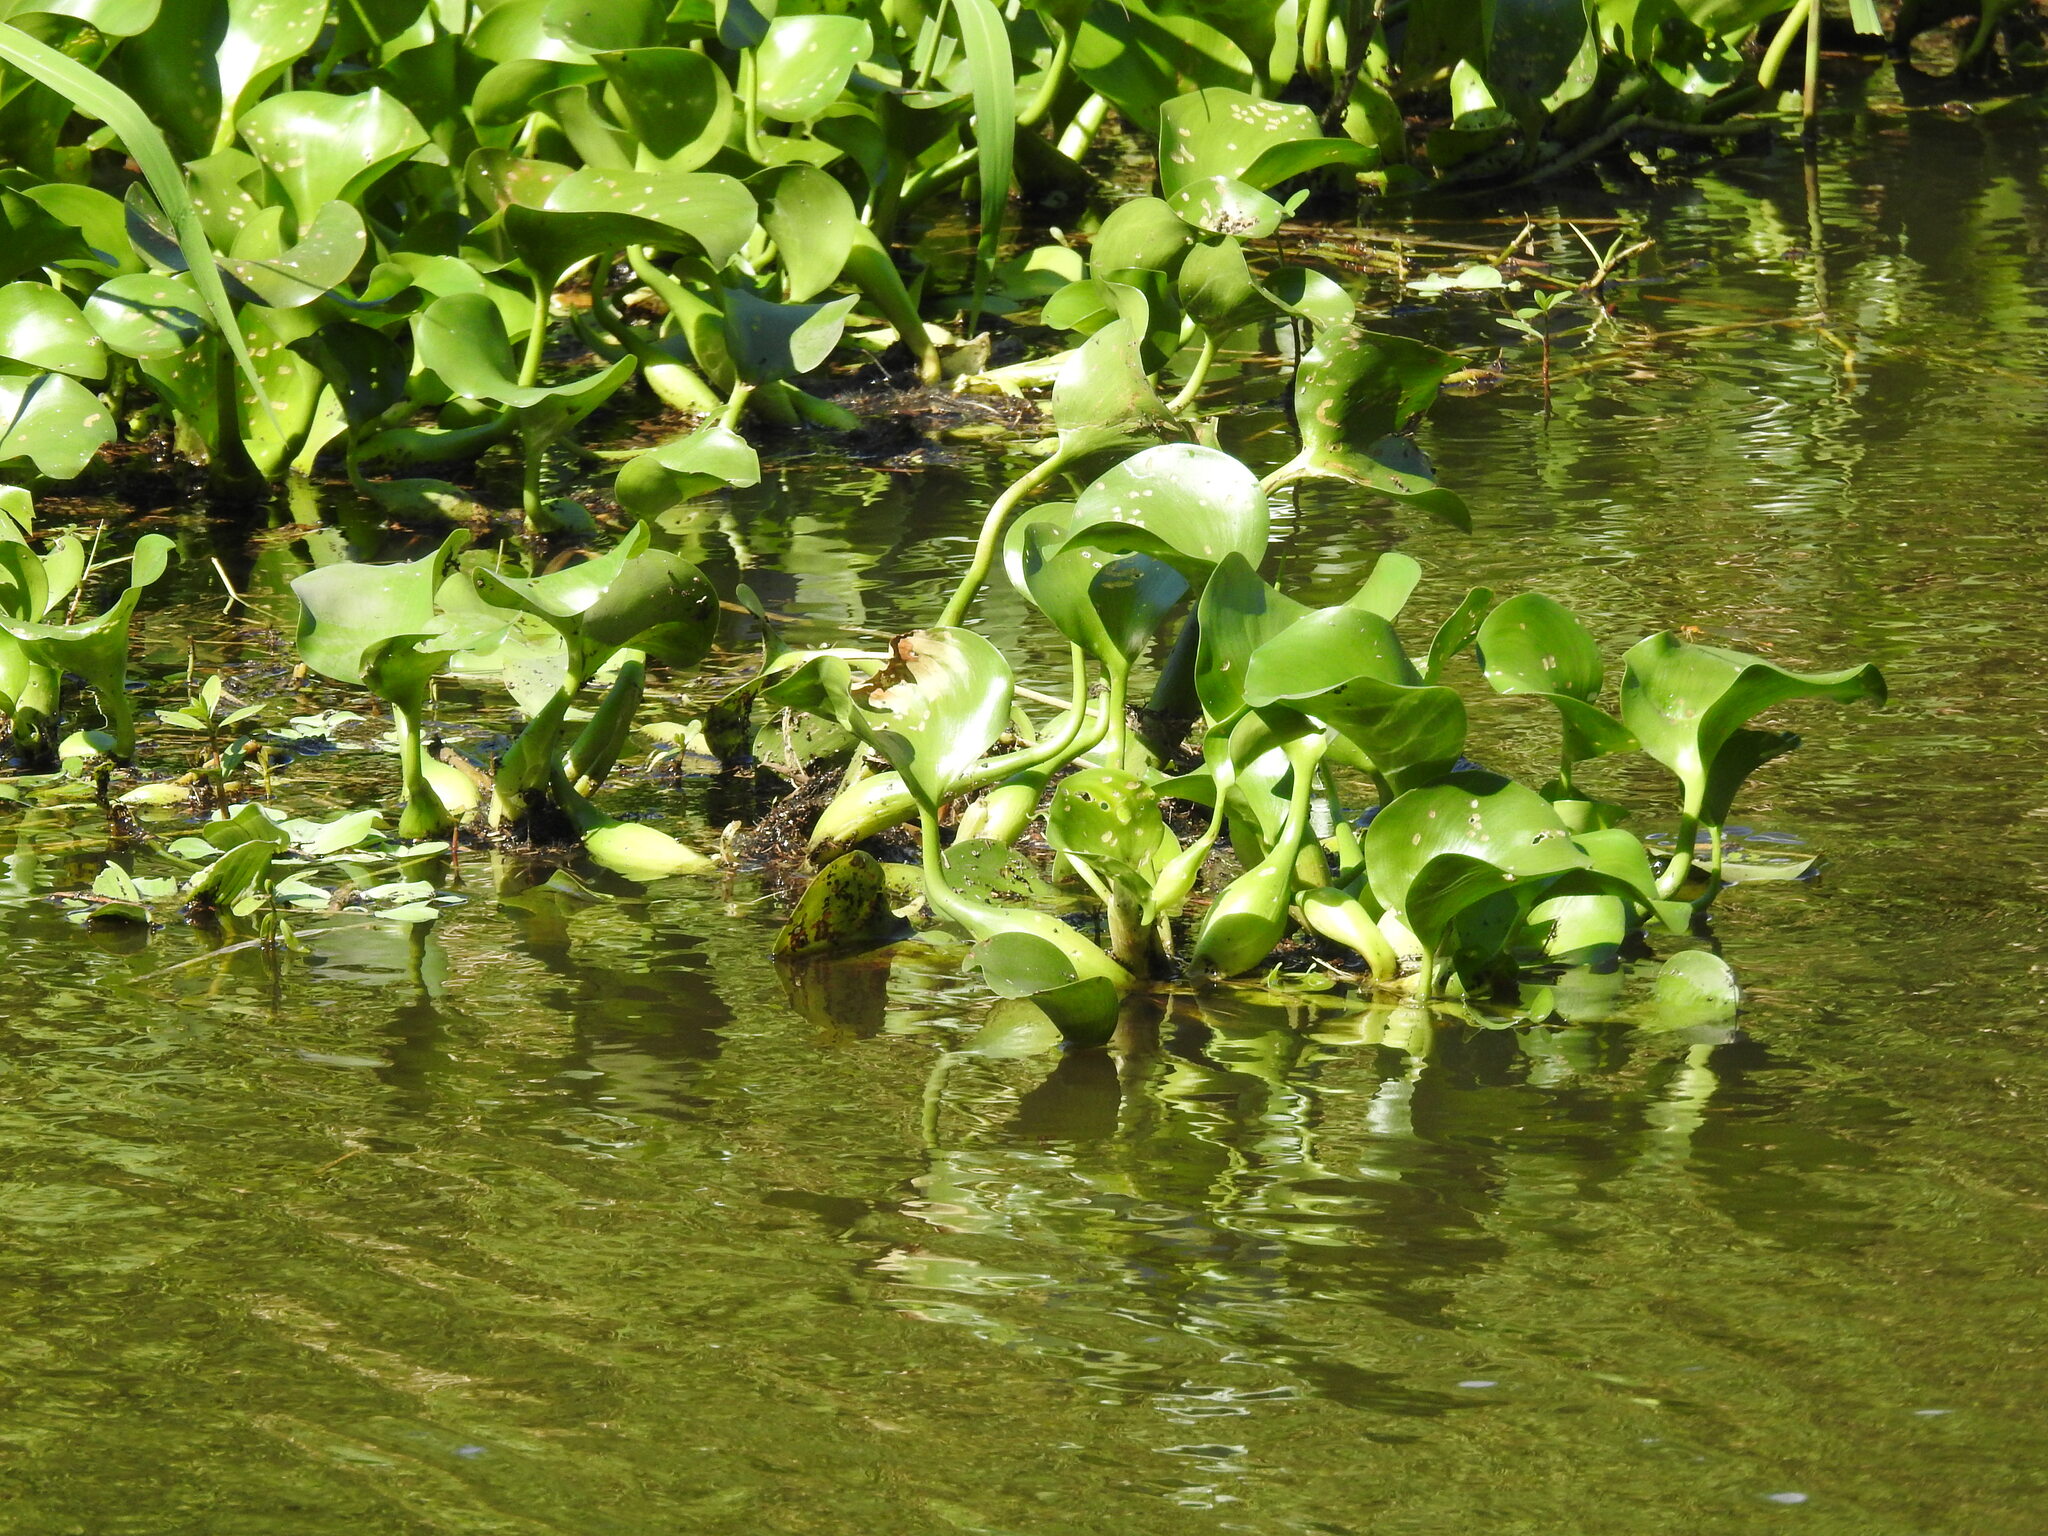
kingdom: Plantae
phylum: Tracheophyta
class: Liliopsida
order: Commelinales
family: Pontederiaceae
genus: Pontederia
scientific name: Pontederia crassipes
